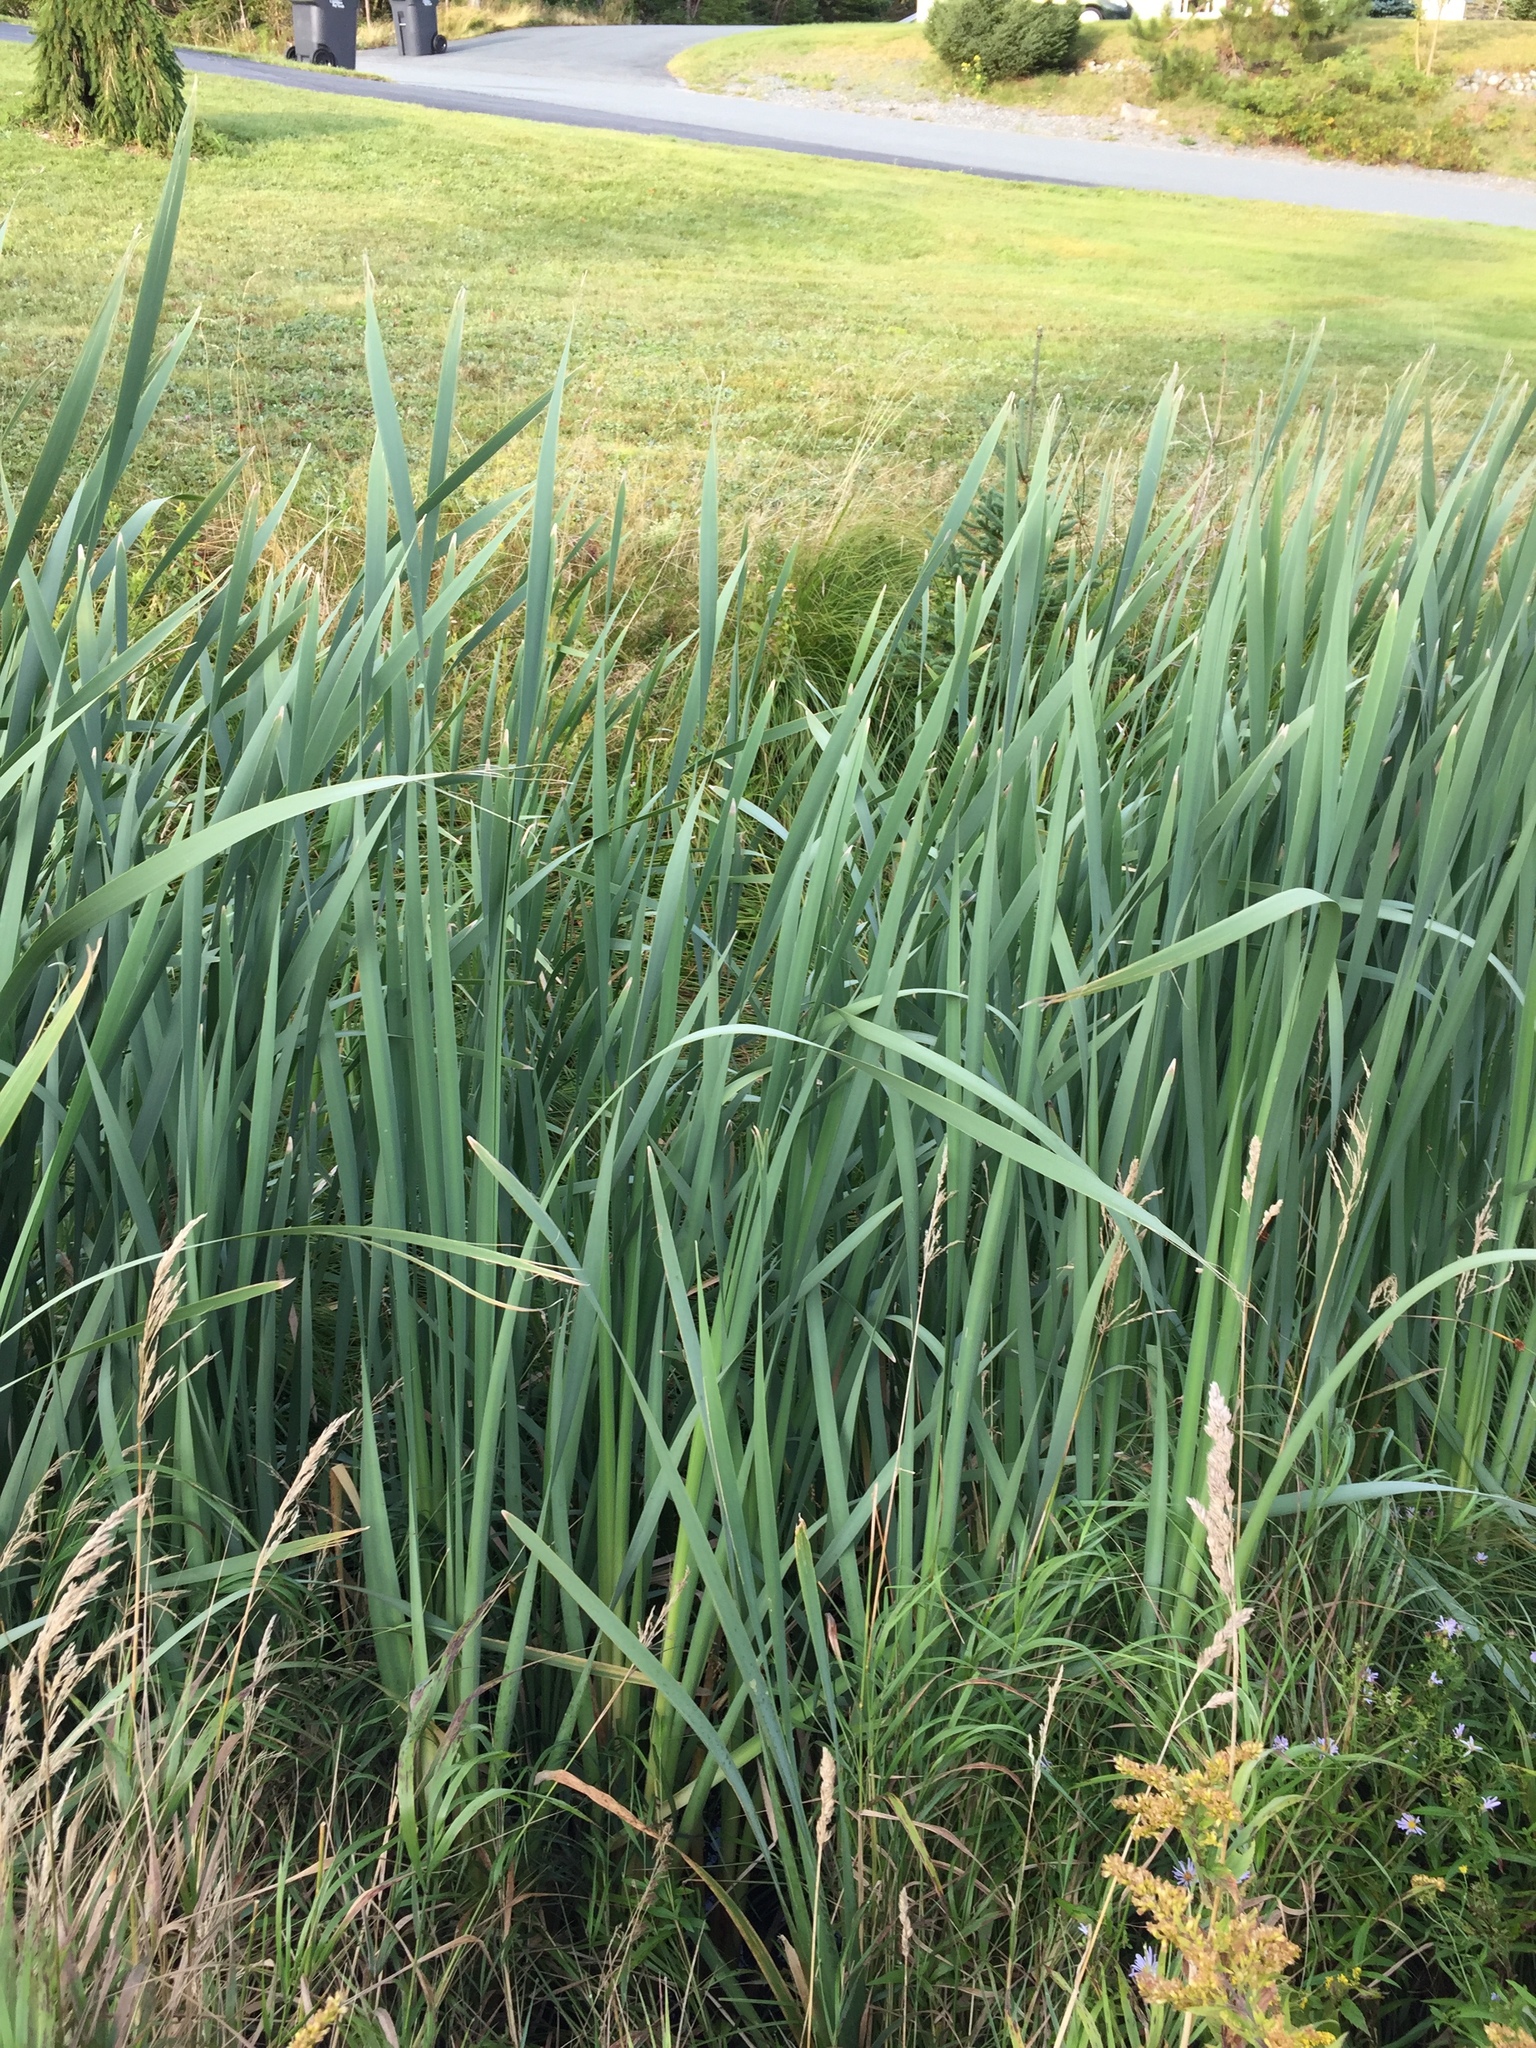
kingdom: Plantae
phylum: Tracheophyta
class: Liliopsida
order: Poales
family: Typhaceae
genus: Typha
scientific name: Typha latifolia
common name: Broadleaf cattail
